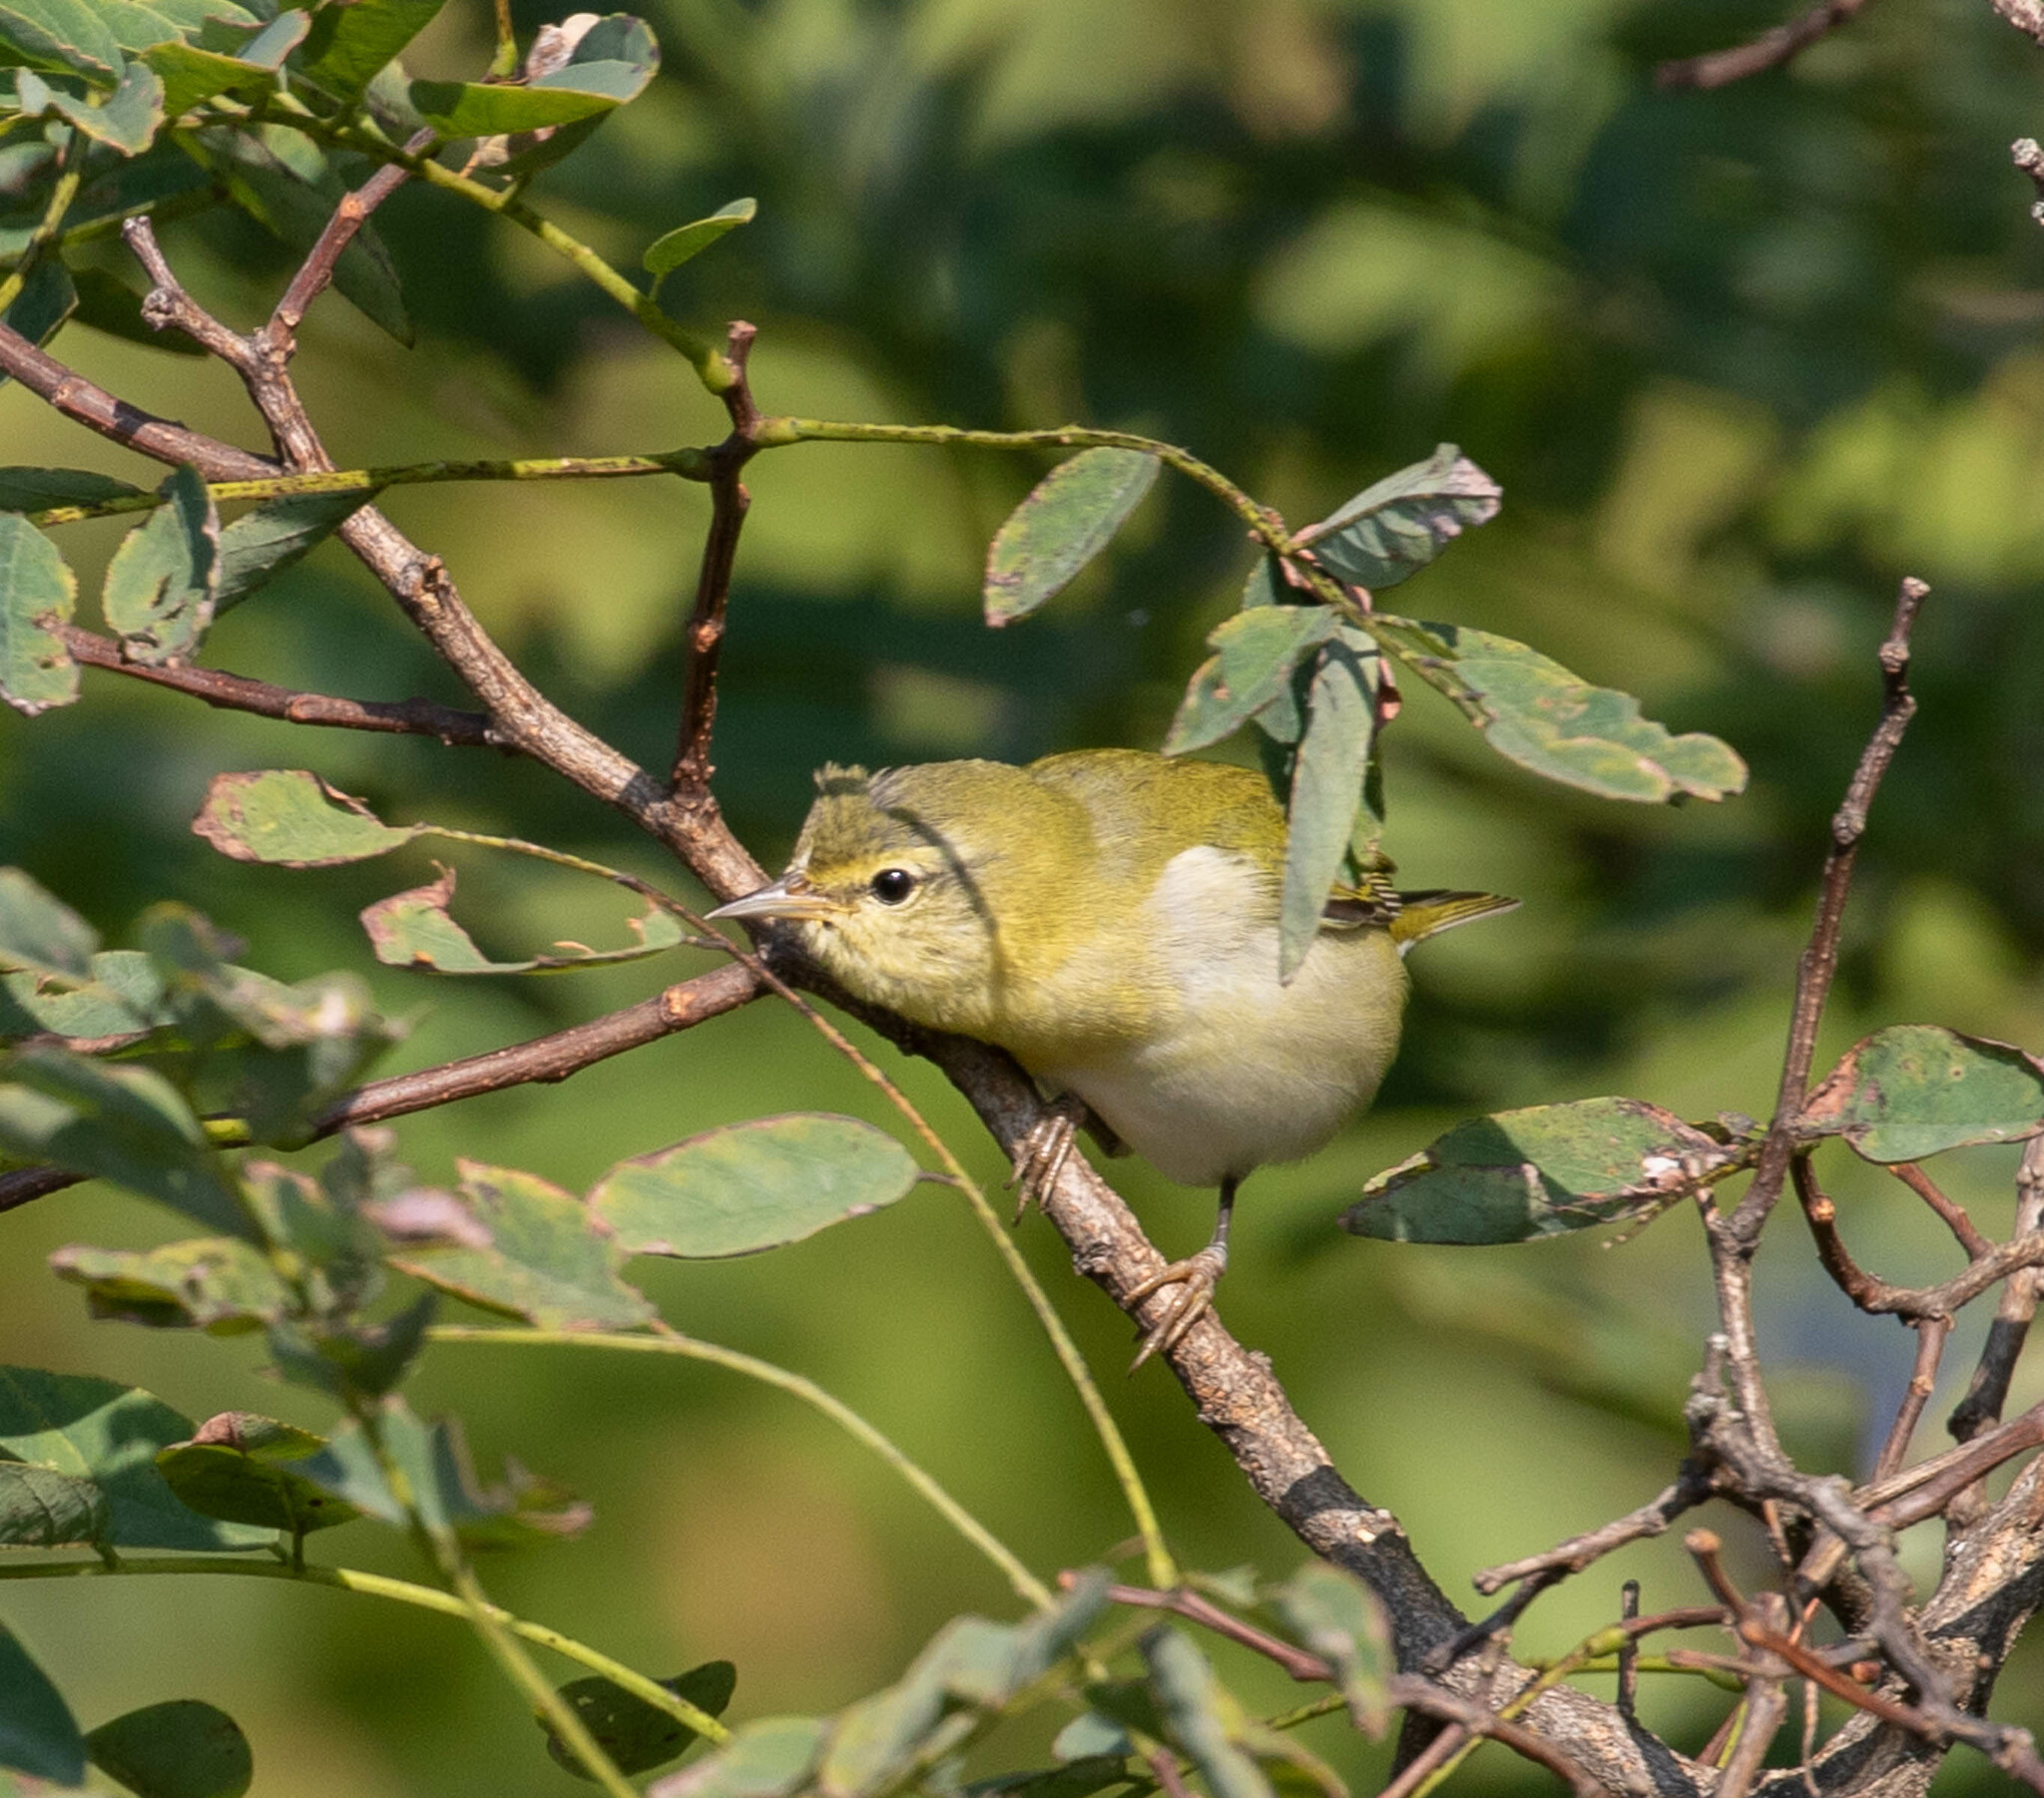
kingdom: Animalia
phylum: Chordata
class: Aves
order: Passeriformes
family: Parulidae
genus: Leiothlypis
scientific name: Leiothlypis peregrina
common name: Tennessee warbler
